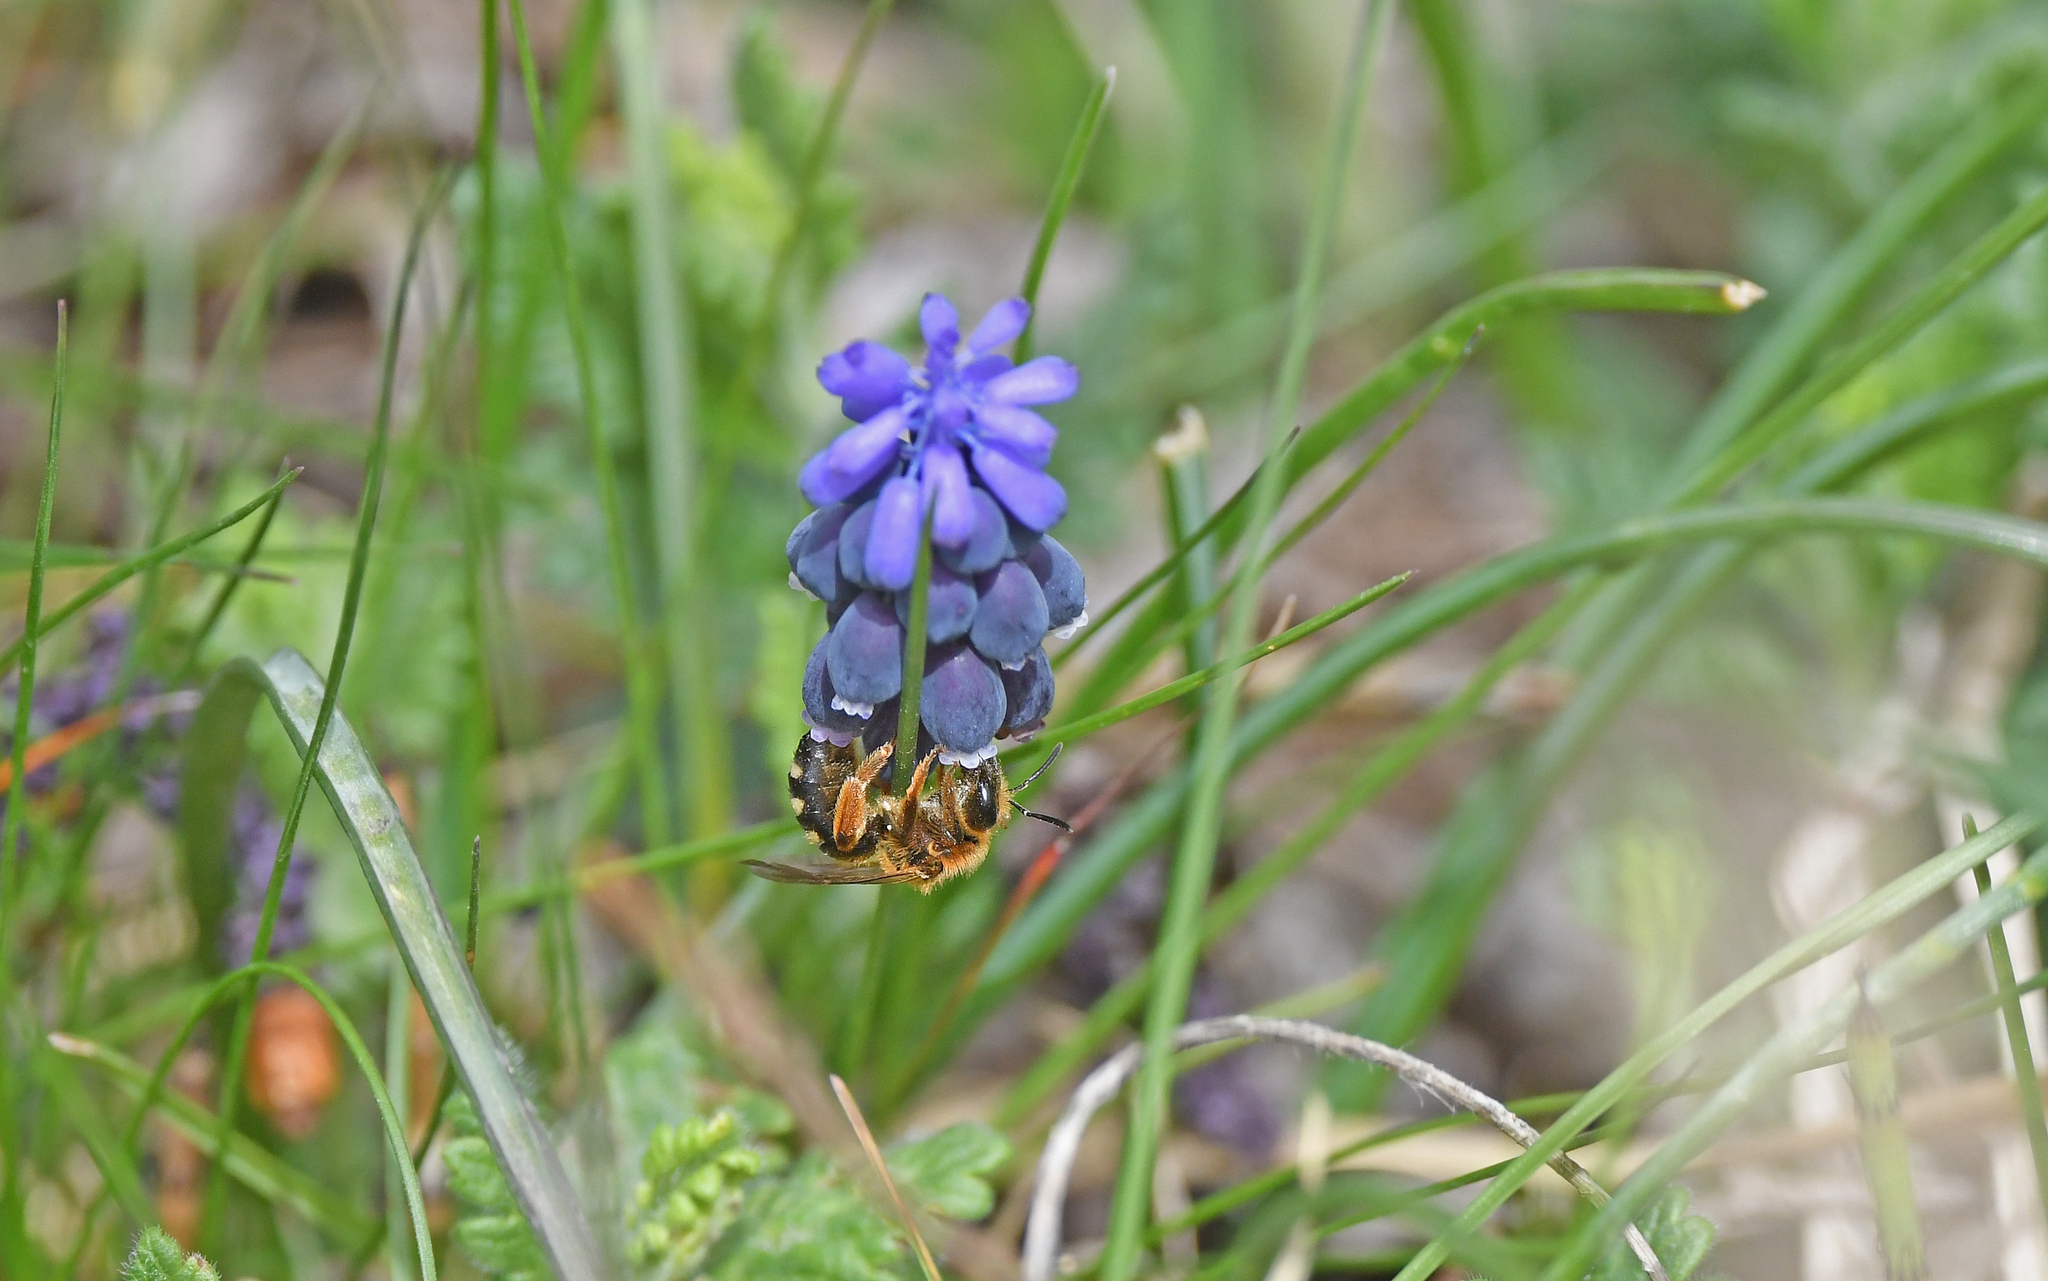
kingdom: Animalia
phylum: Arthropoda
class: Insecta
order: Hymenoptera
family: Halictidae
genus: Lasioglossum
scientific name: Lasioglossum xanthopus
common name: Orange-footed furrow bee
